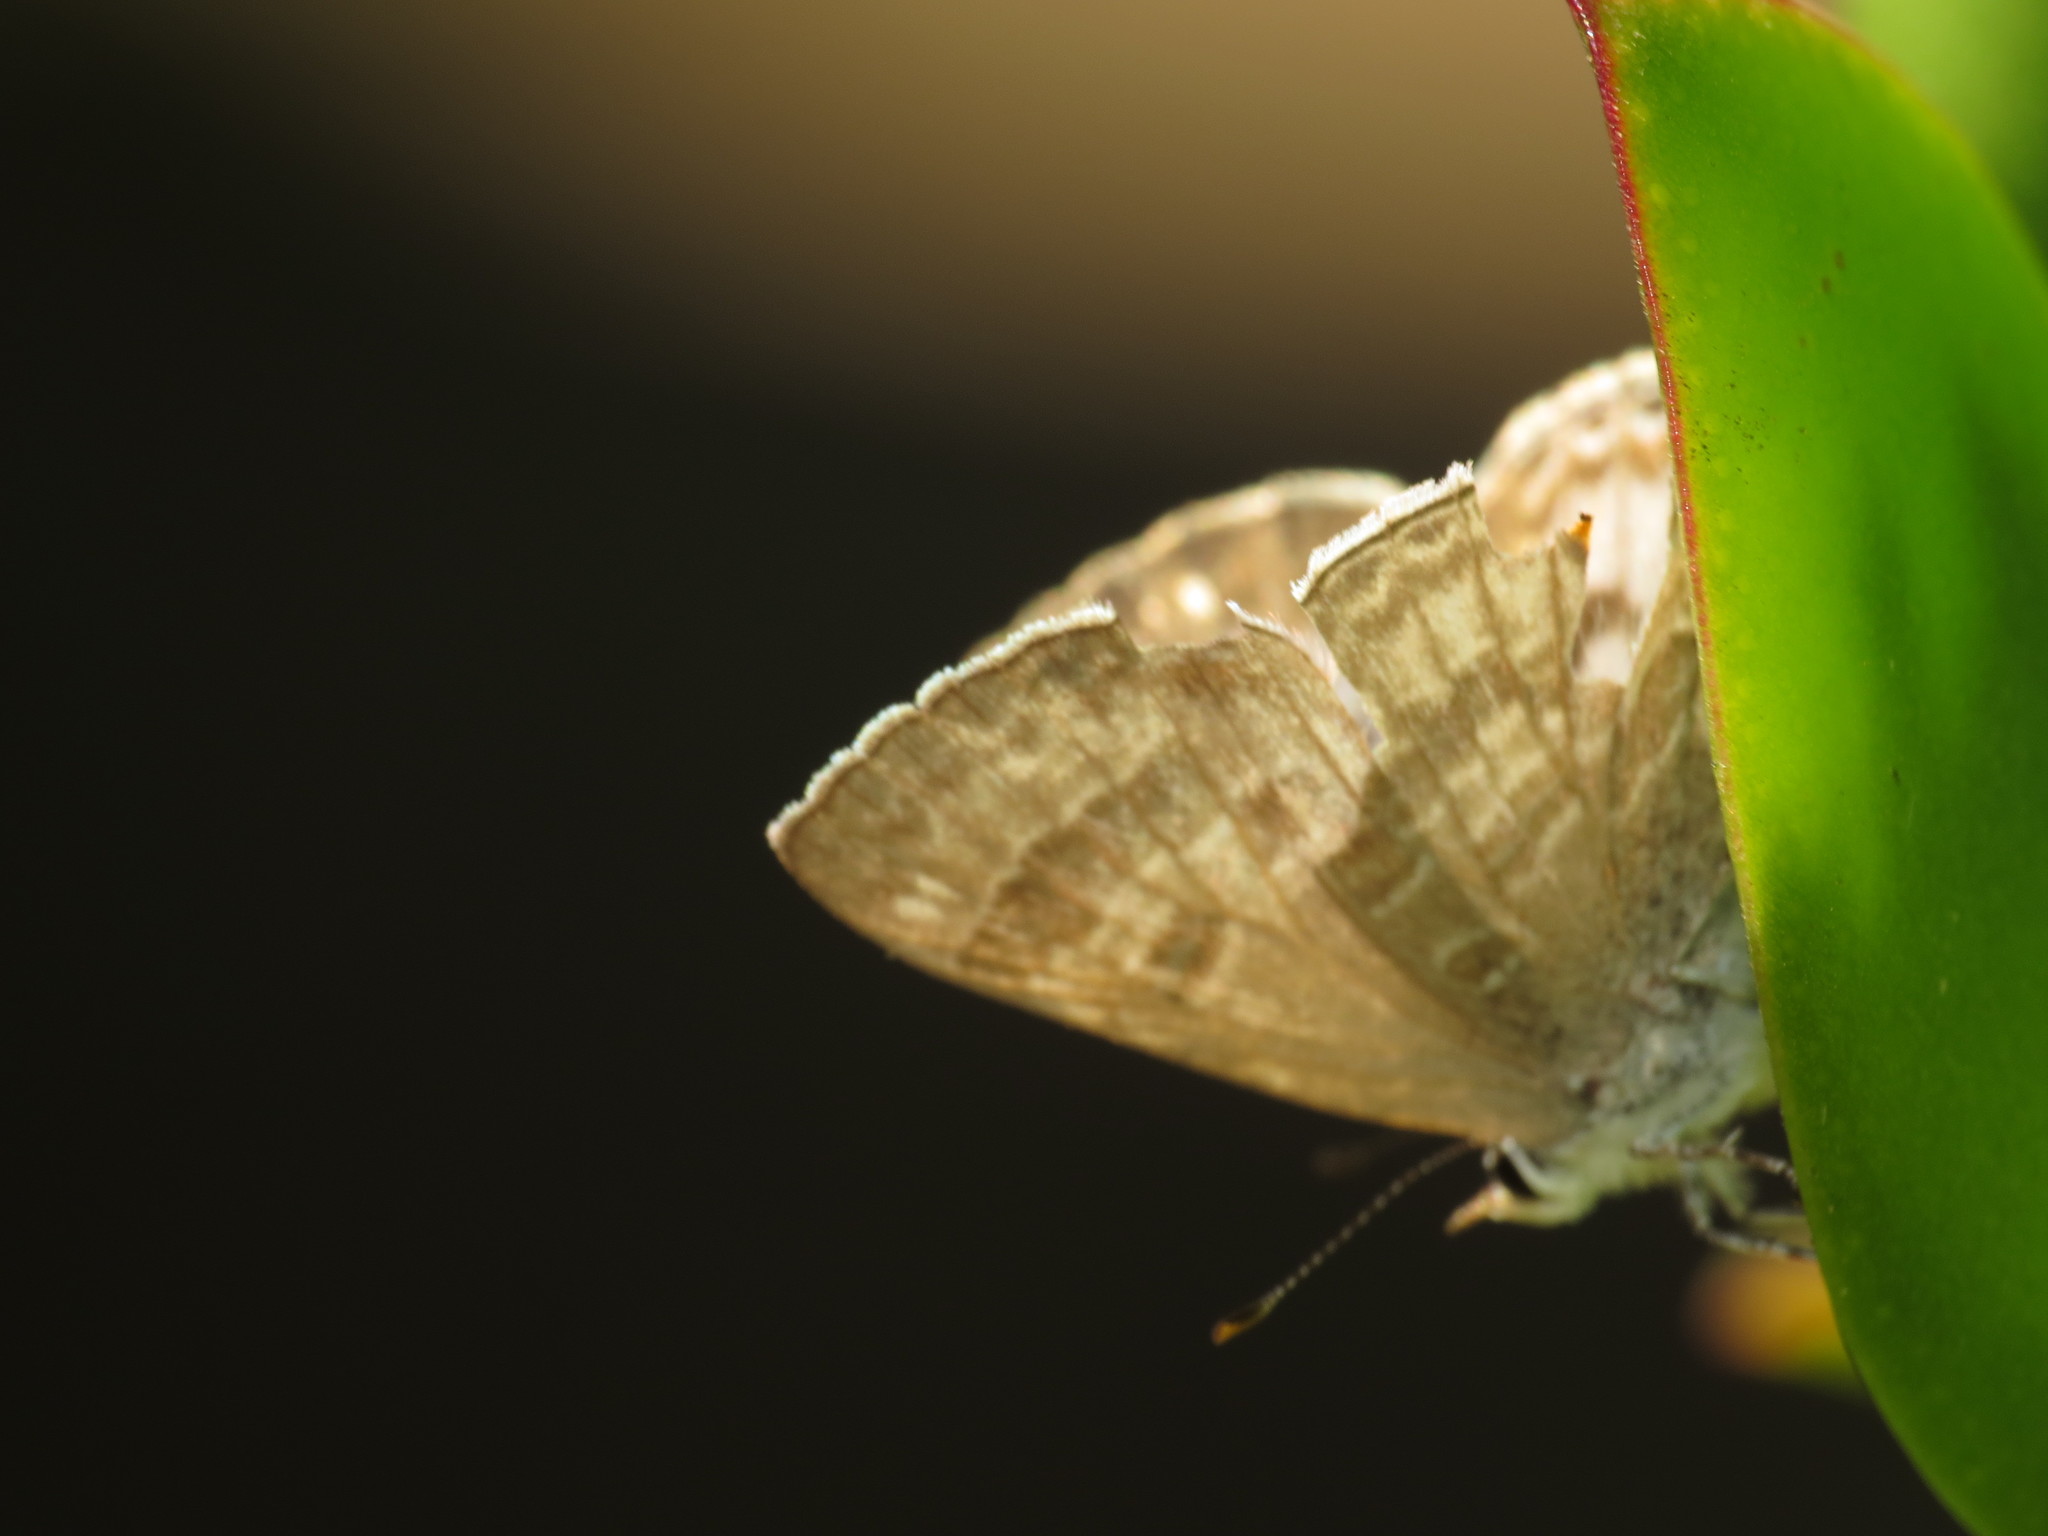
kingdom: Animalia
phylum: Arthropoda
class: Insecta
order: Lepidoptera
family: Lycaenidae
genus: Anthene
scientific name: Anthene definita
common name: Common ciliate blue
